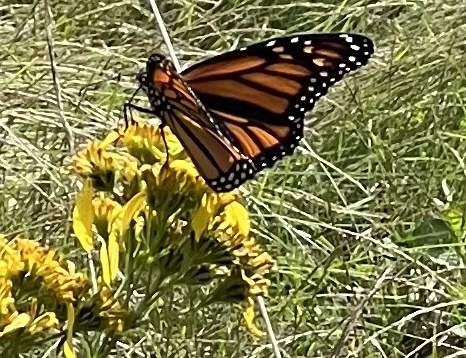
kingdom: Animalia
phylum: Arthropoda
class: Insecta
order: Lepidoptera
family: Nymphalidae
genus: Danaus
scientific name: Danaus plexippus
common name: Monarch
